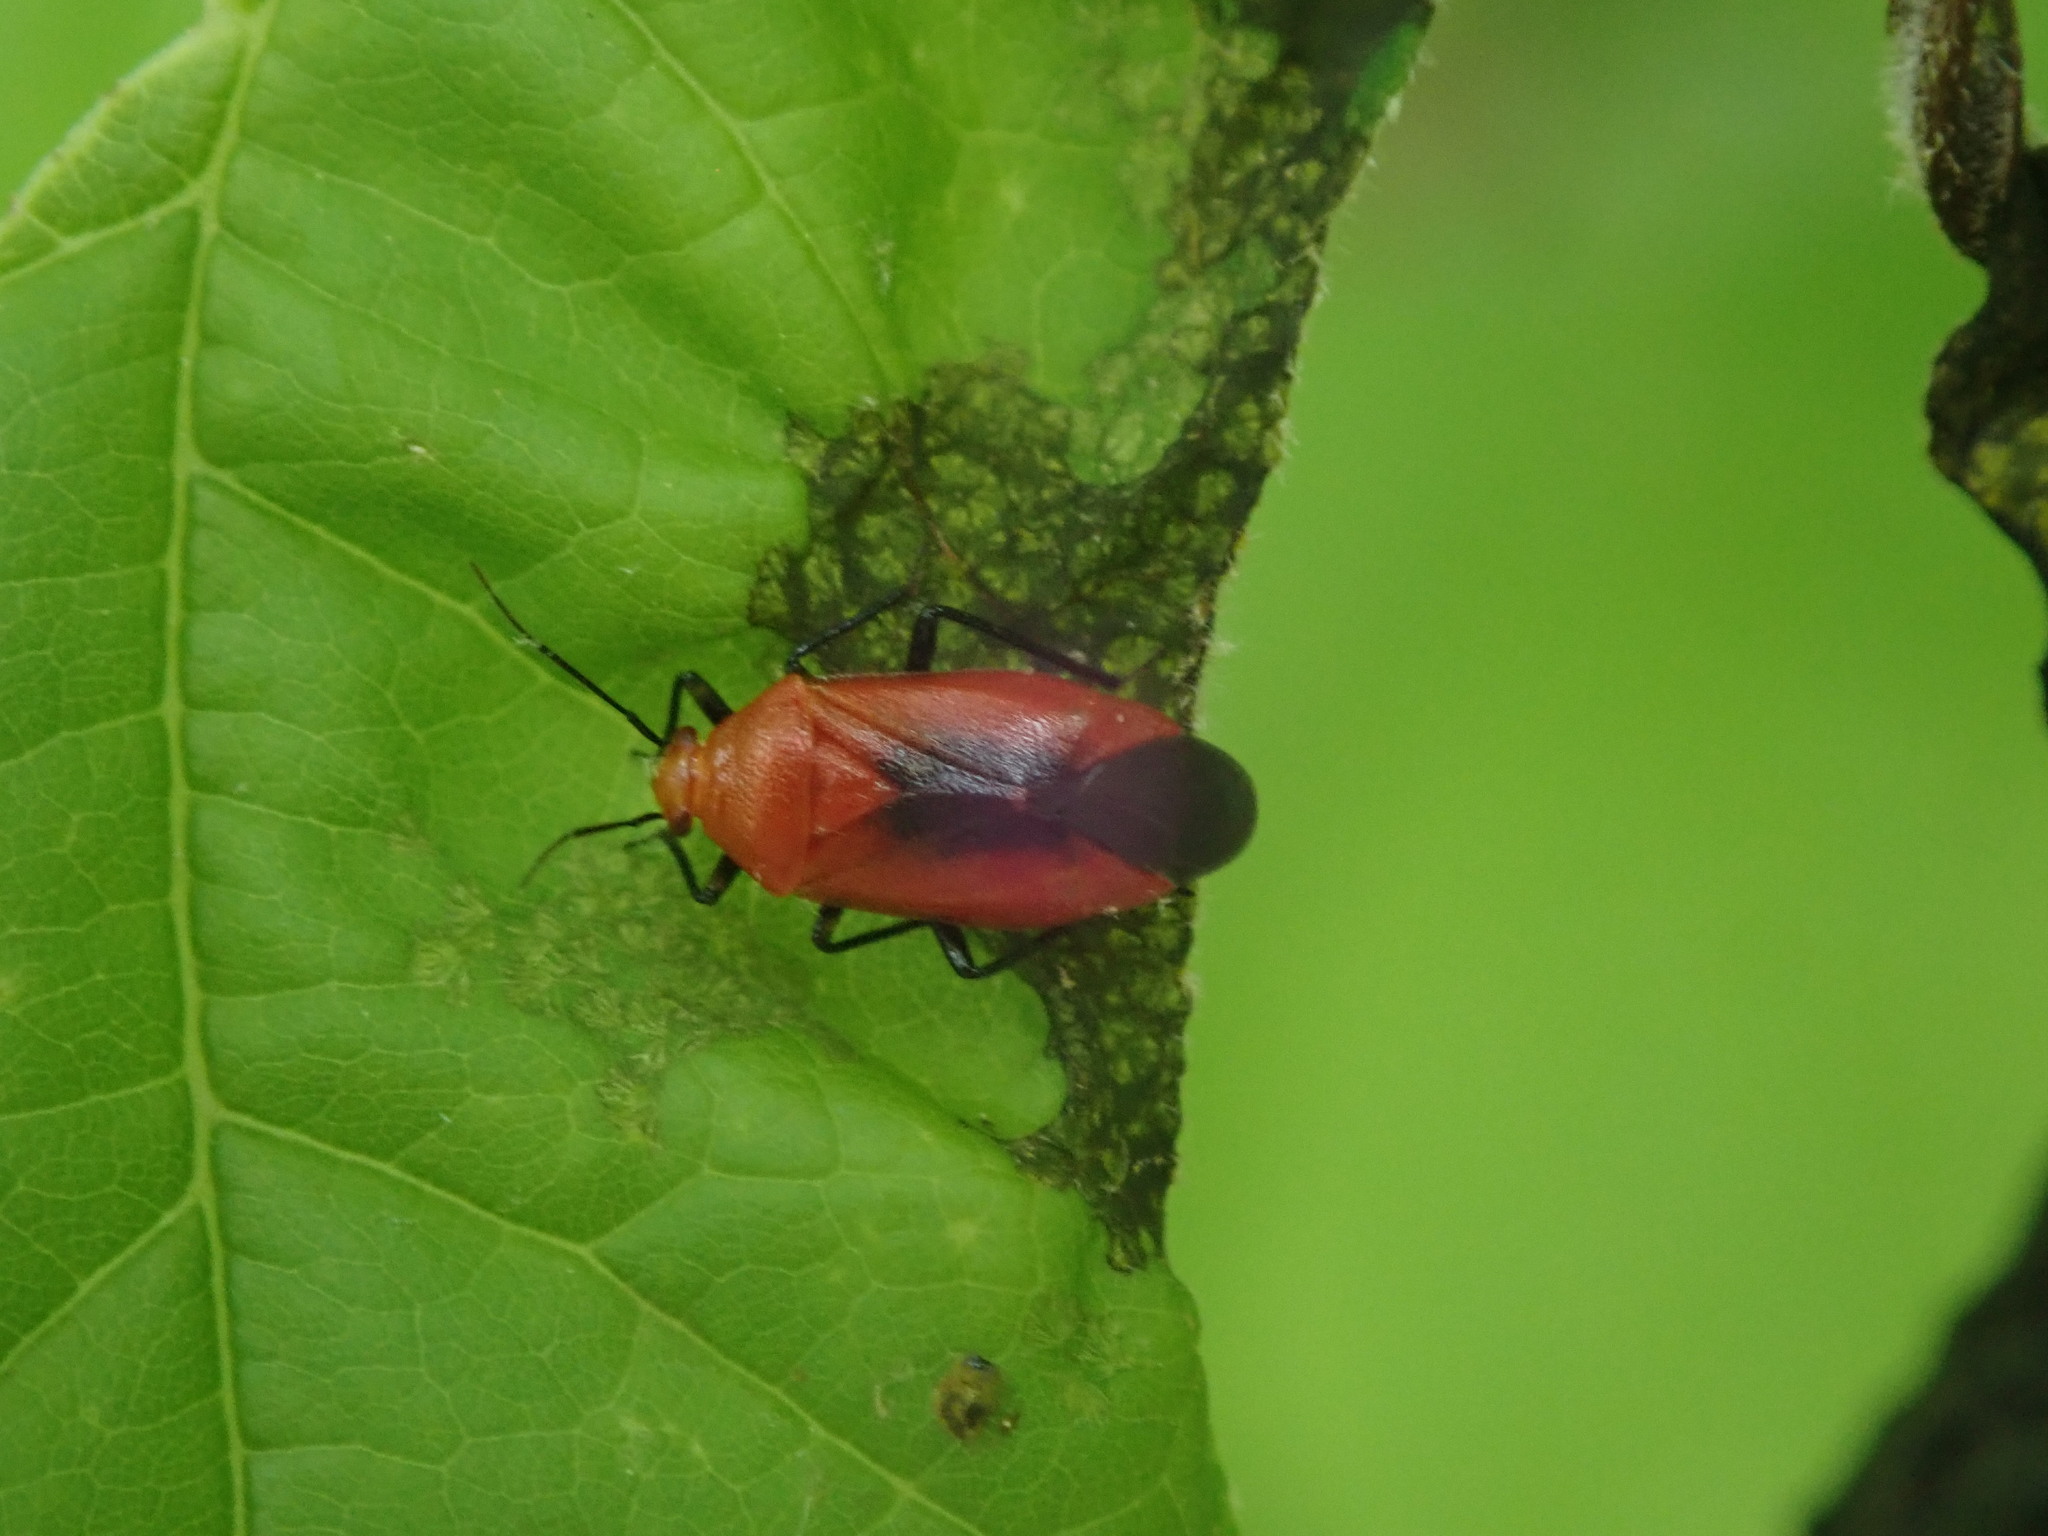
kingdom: Animalia
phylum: Arthropoda
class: Insecta
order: Hemiptera
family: Miridae
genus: Tropidosteptes
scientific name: Tropidosteptes cardinalis
